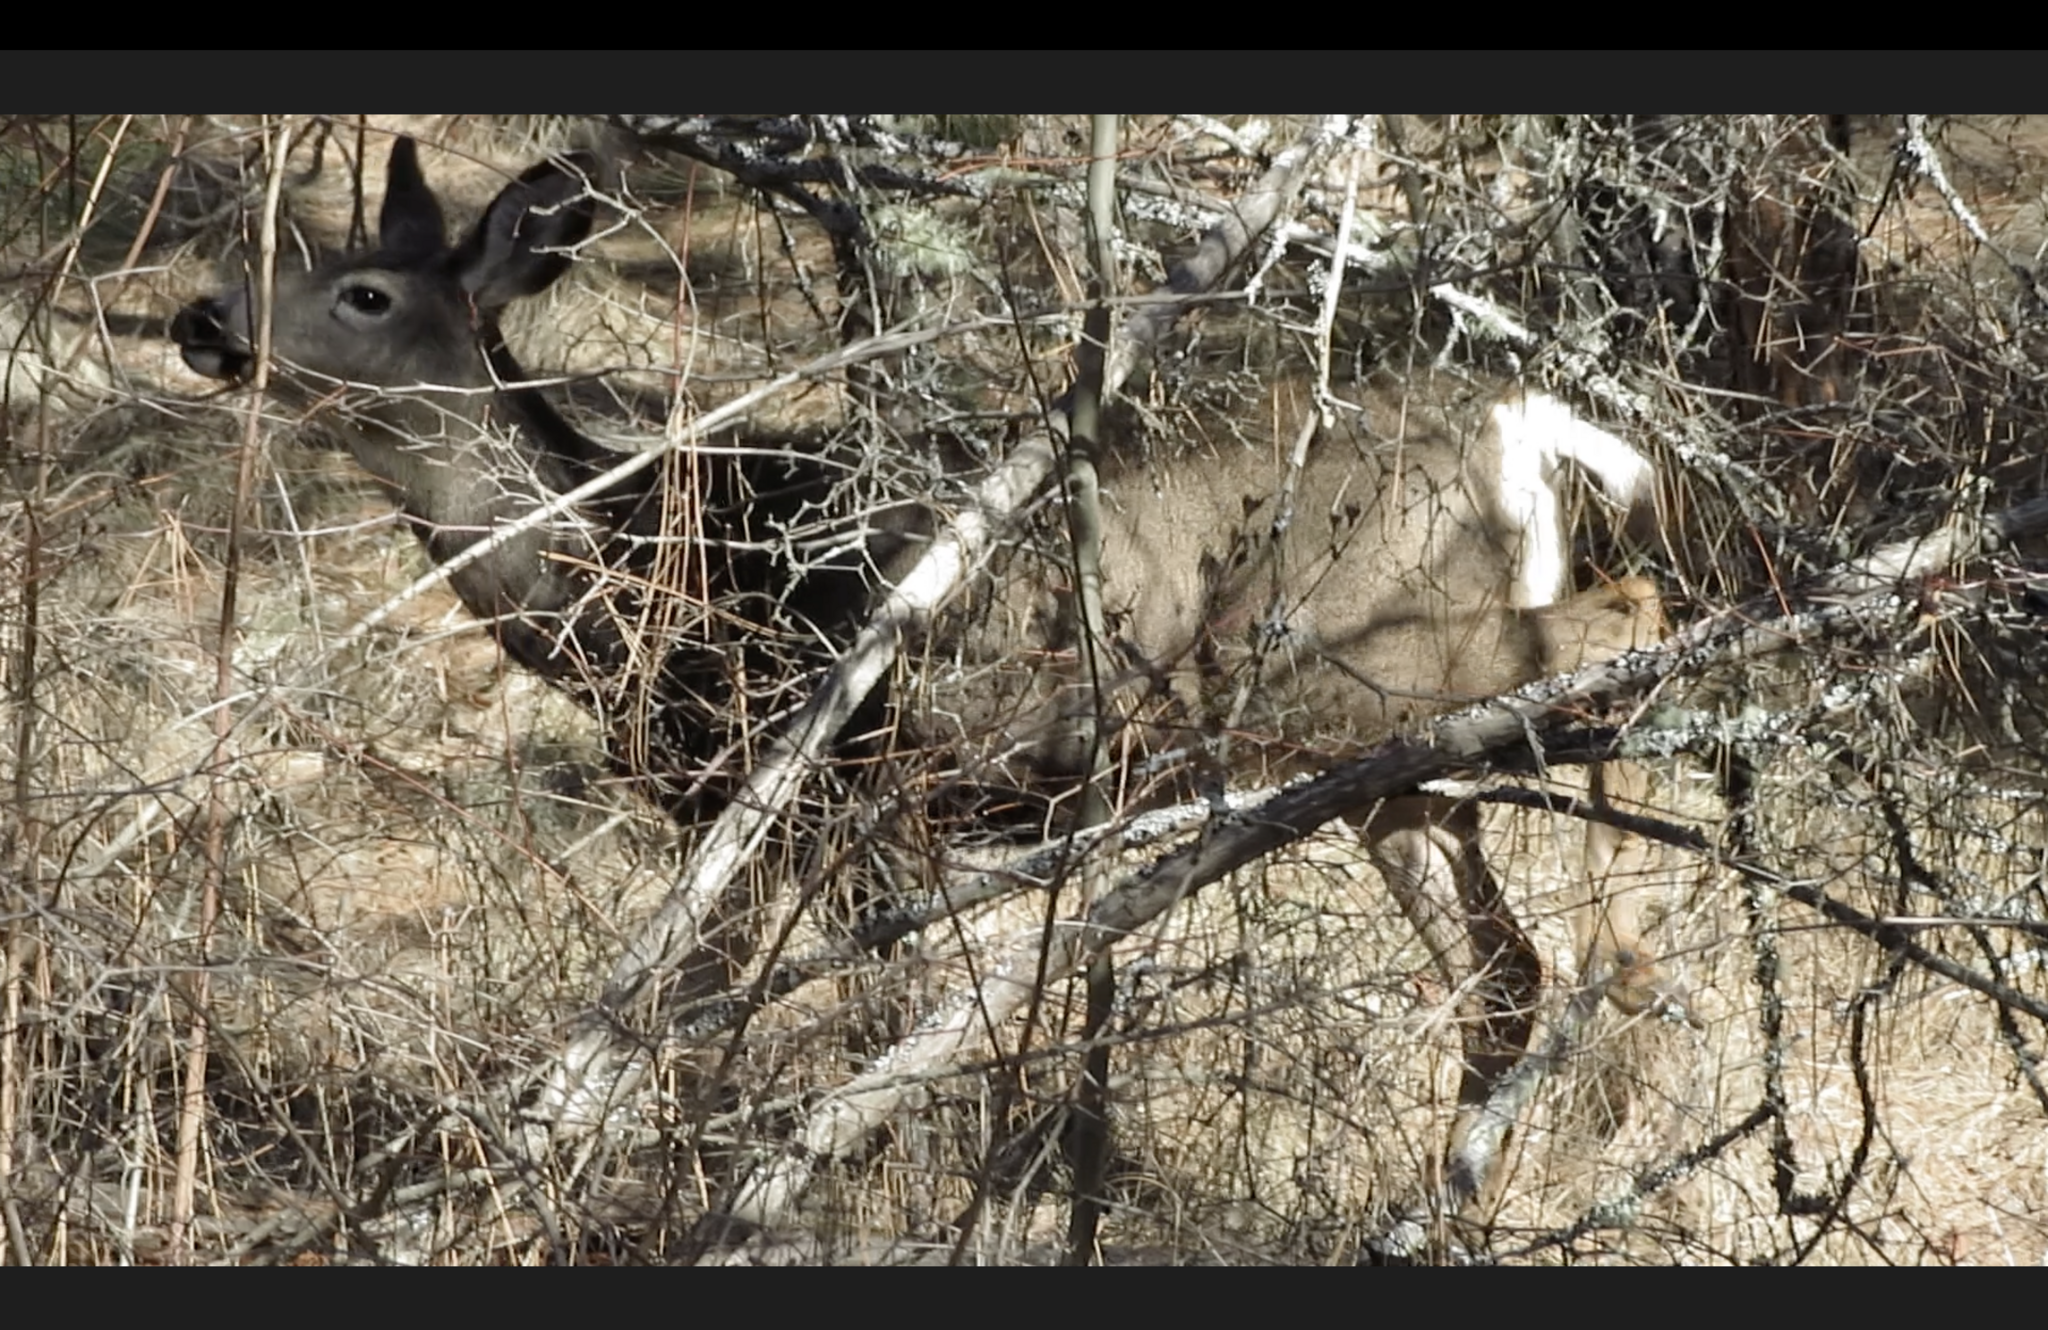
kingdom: Animalia
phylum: Chordata
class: Mammalia
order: Artiodactyla
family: Cervidae
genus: Odocoileus
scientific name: Odocoileus hemionus
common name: Mule deer
